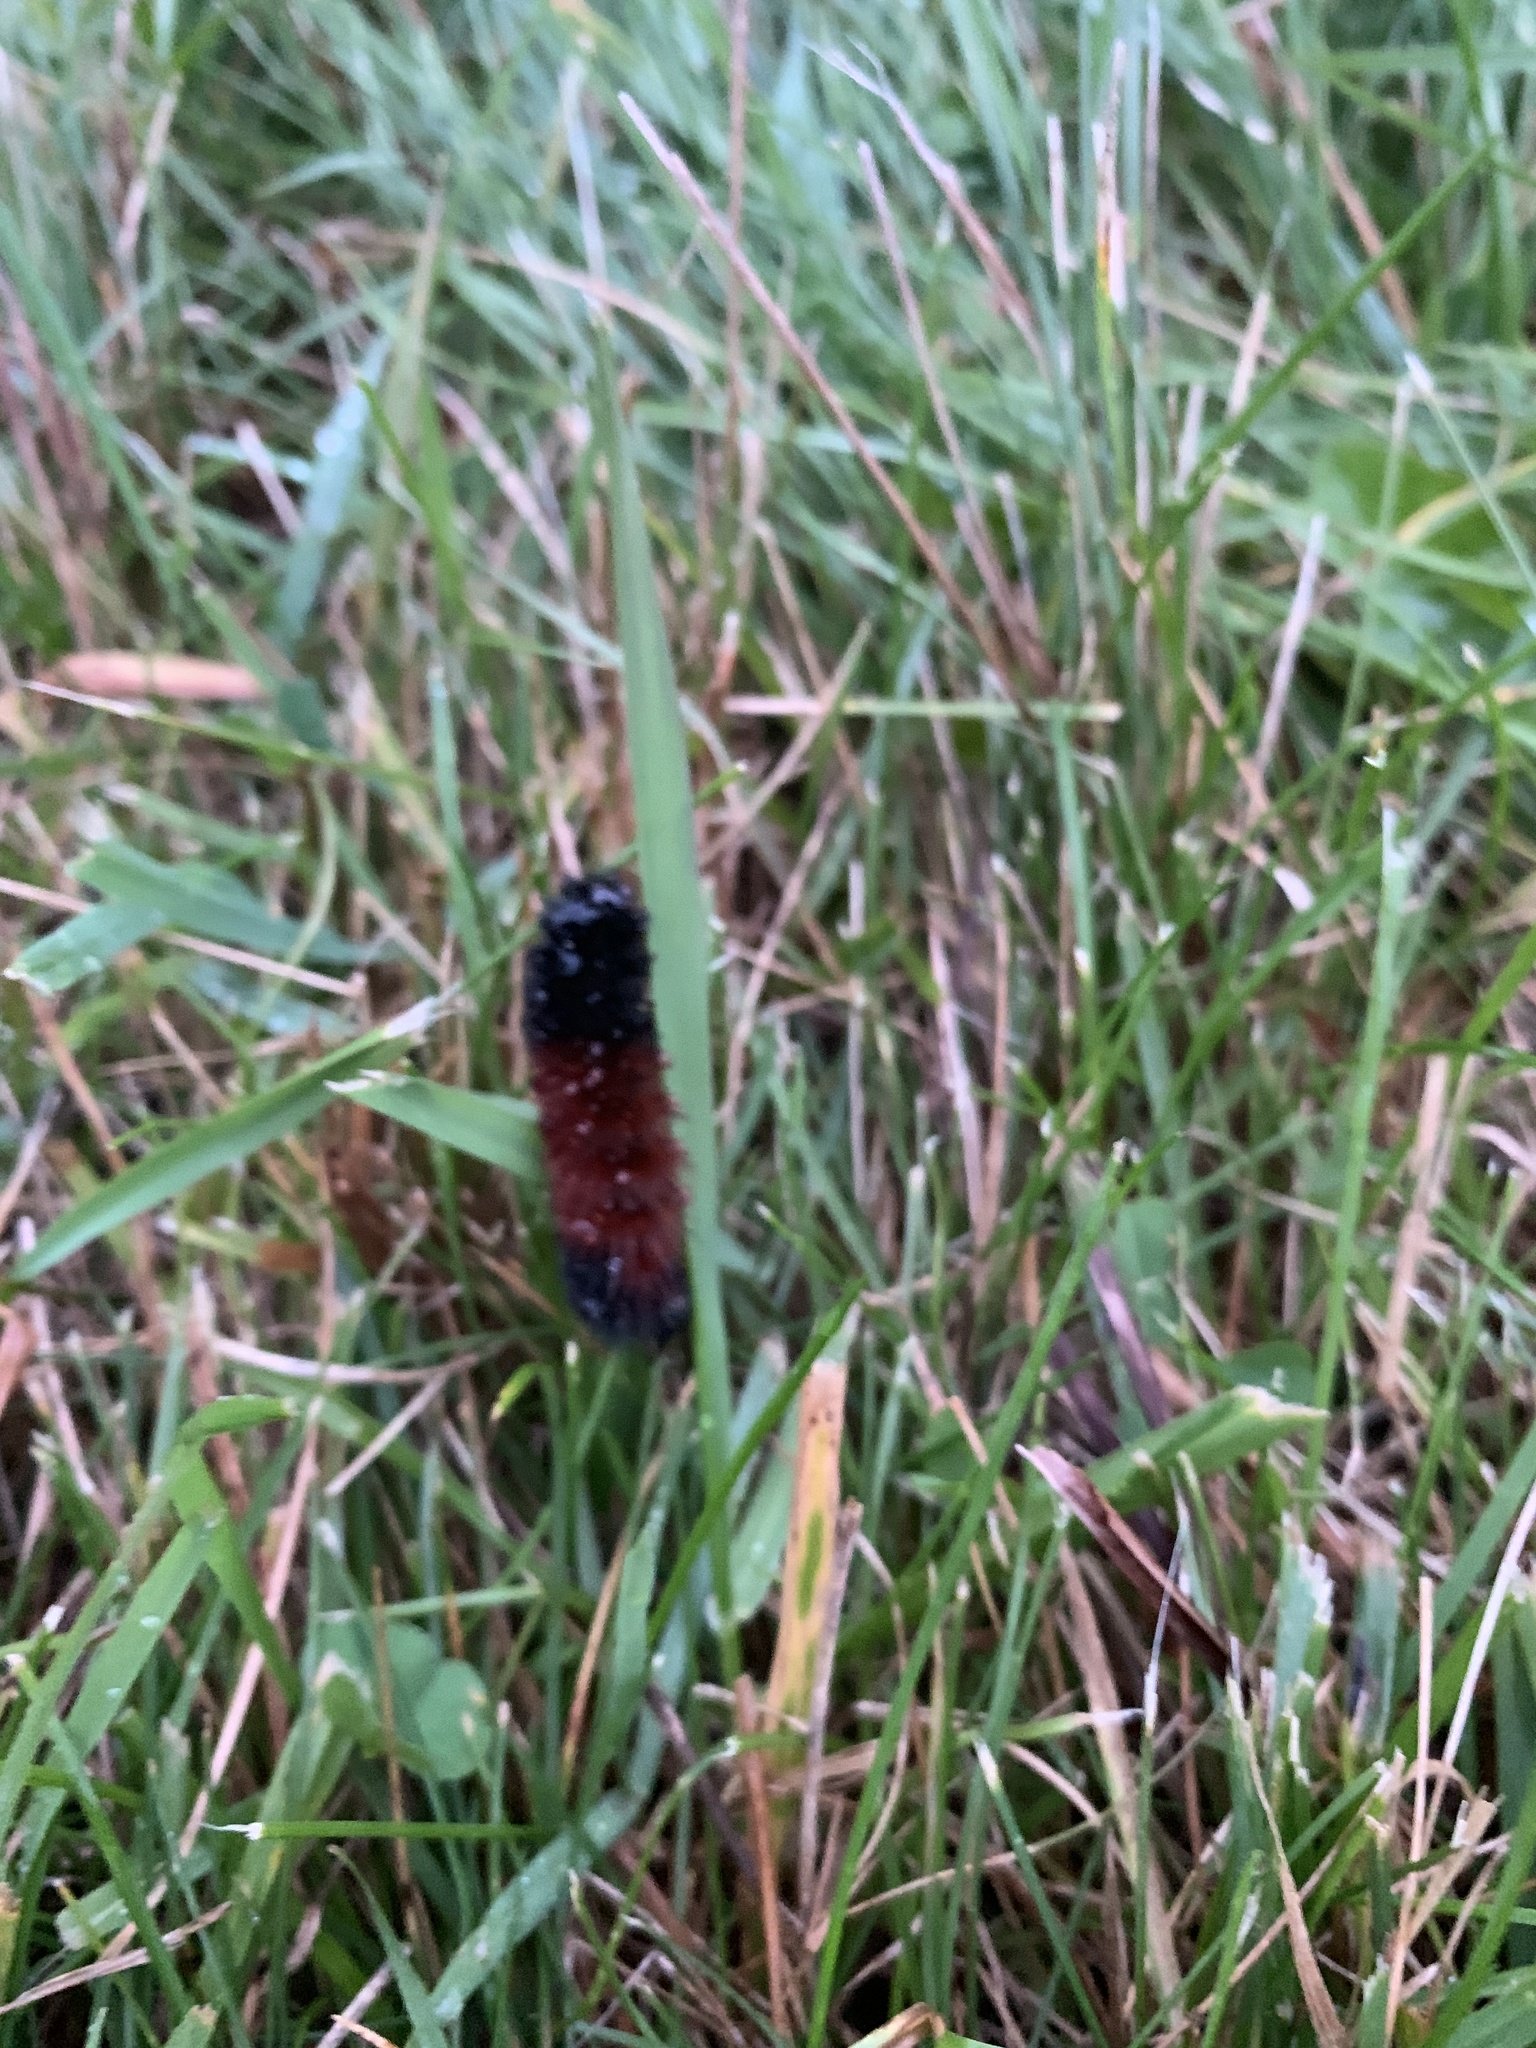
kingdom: Animalia
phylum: Arthropoda
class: Insecta
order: Lepidoptera
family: Erebidae
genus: Pyrrharctia
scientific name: Pyrrharctia isabella
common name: Isabella tiger moth
